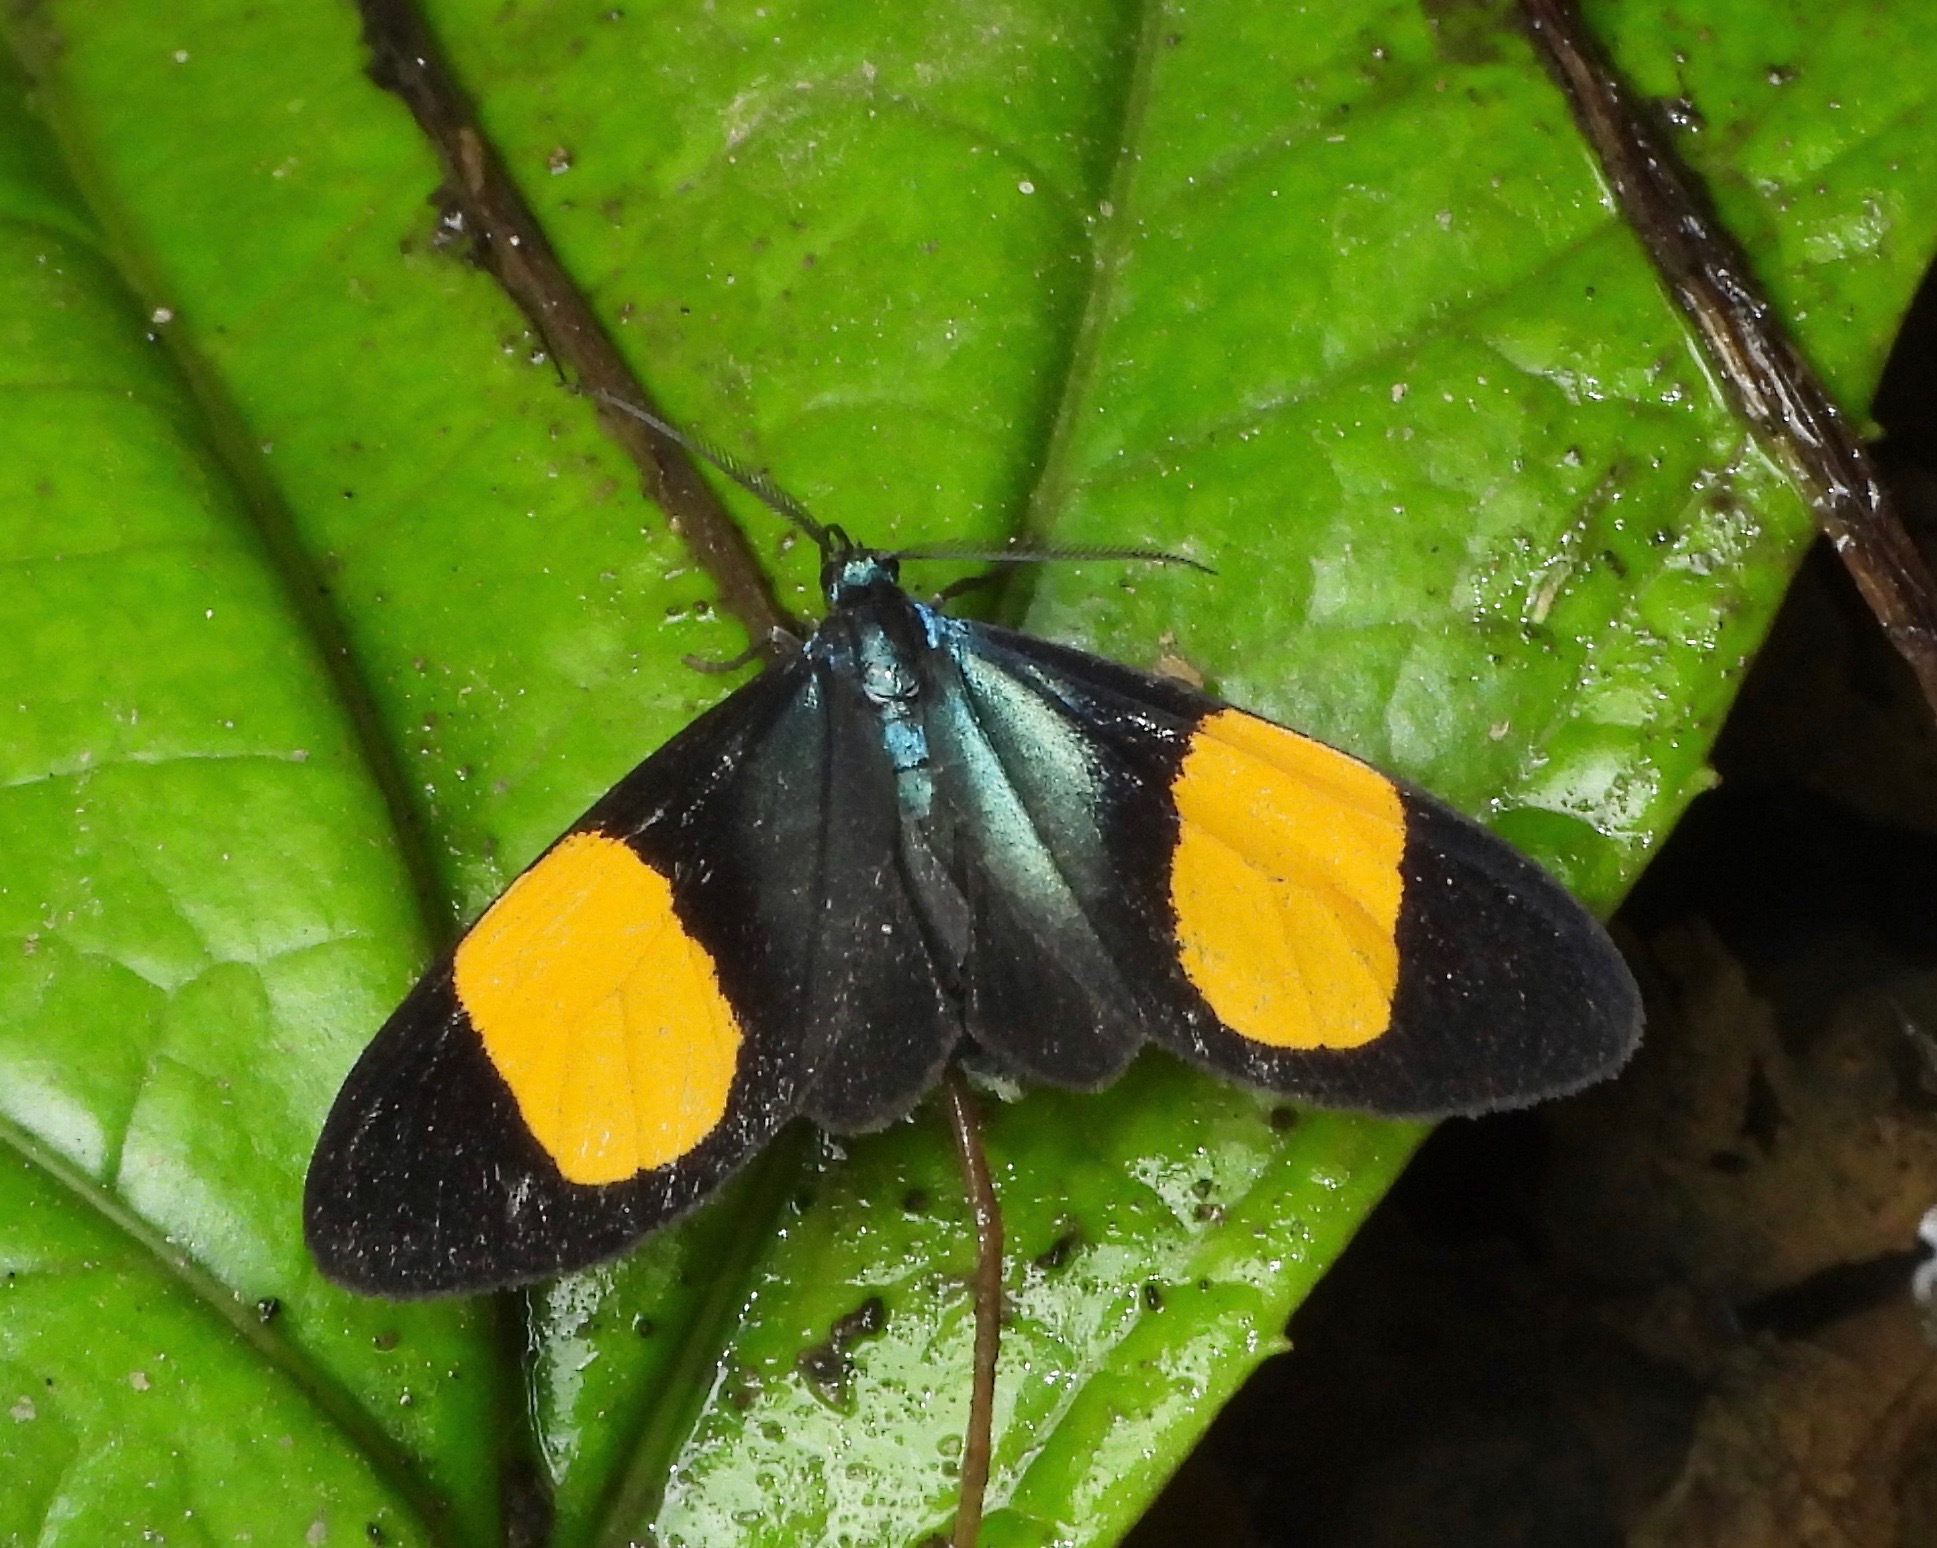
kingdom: Animalia
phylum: Arthropoda
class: Insecta
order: Lepidoptera
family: Erebidae
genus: Crocomela
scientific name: Crocomela inca
